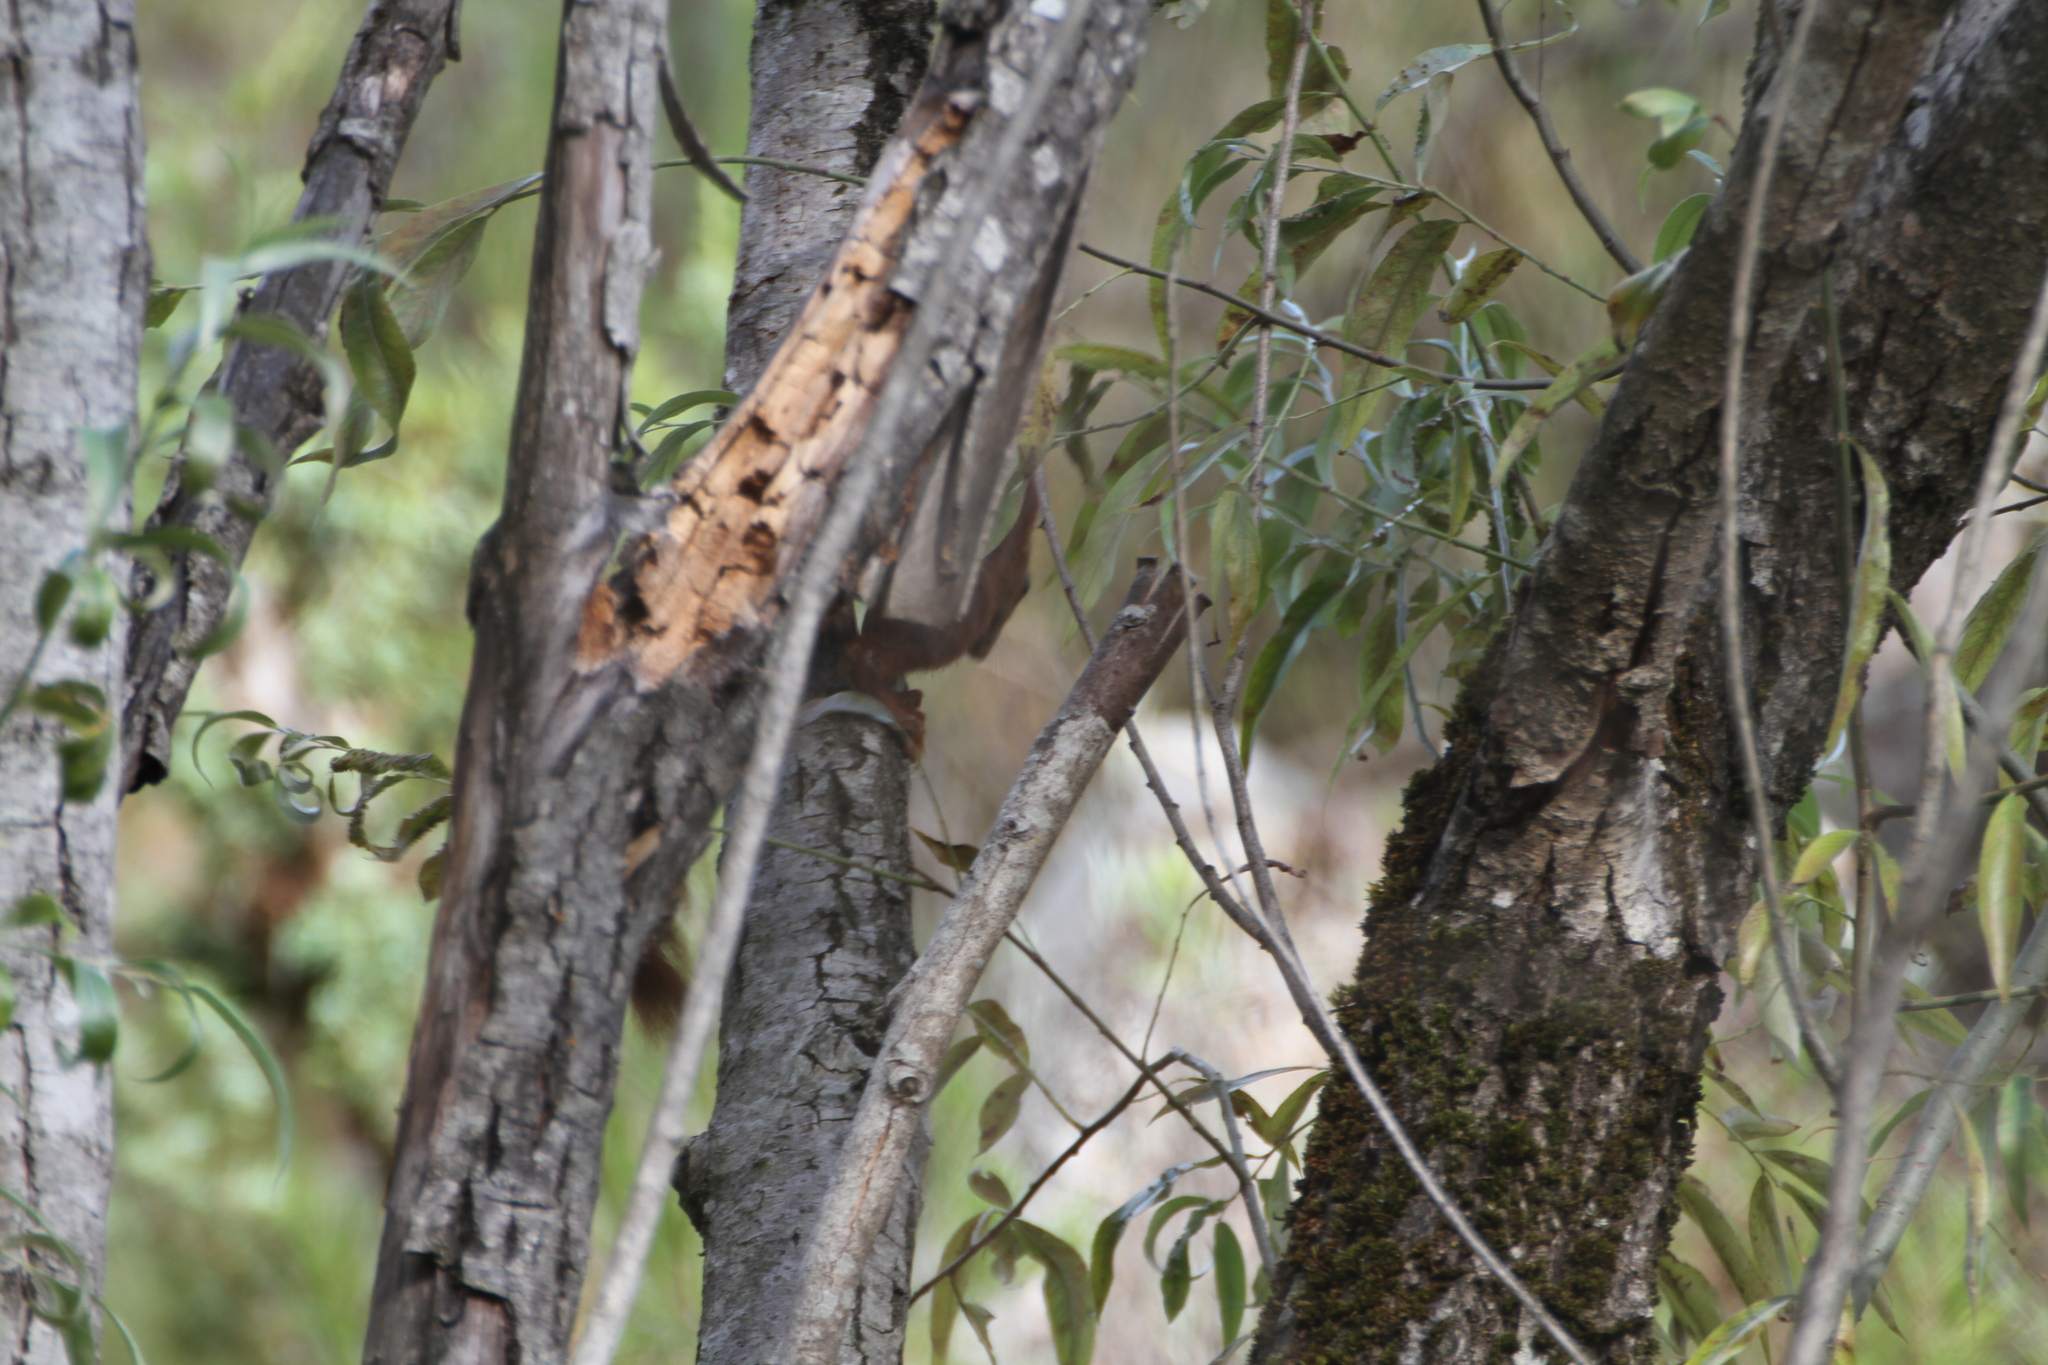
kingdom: Animalia
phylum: Chordata
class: Mammalia
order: Rodentia
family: Sciuridae
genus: Sciurus
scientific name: Sciurus vulgaris
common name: Eurasian red squirrel
